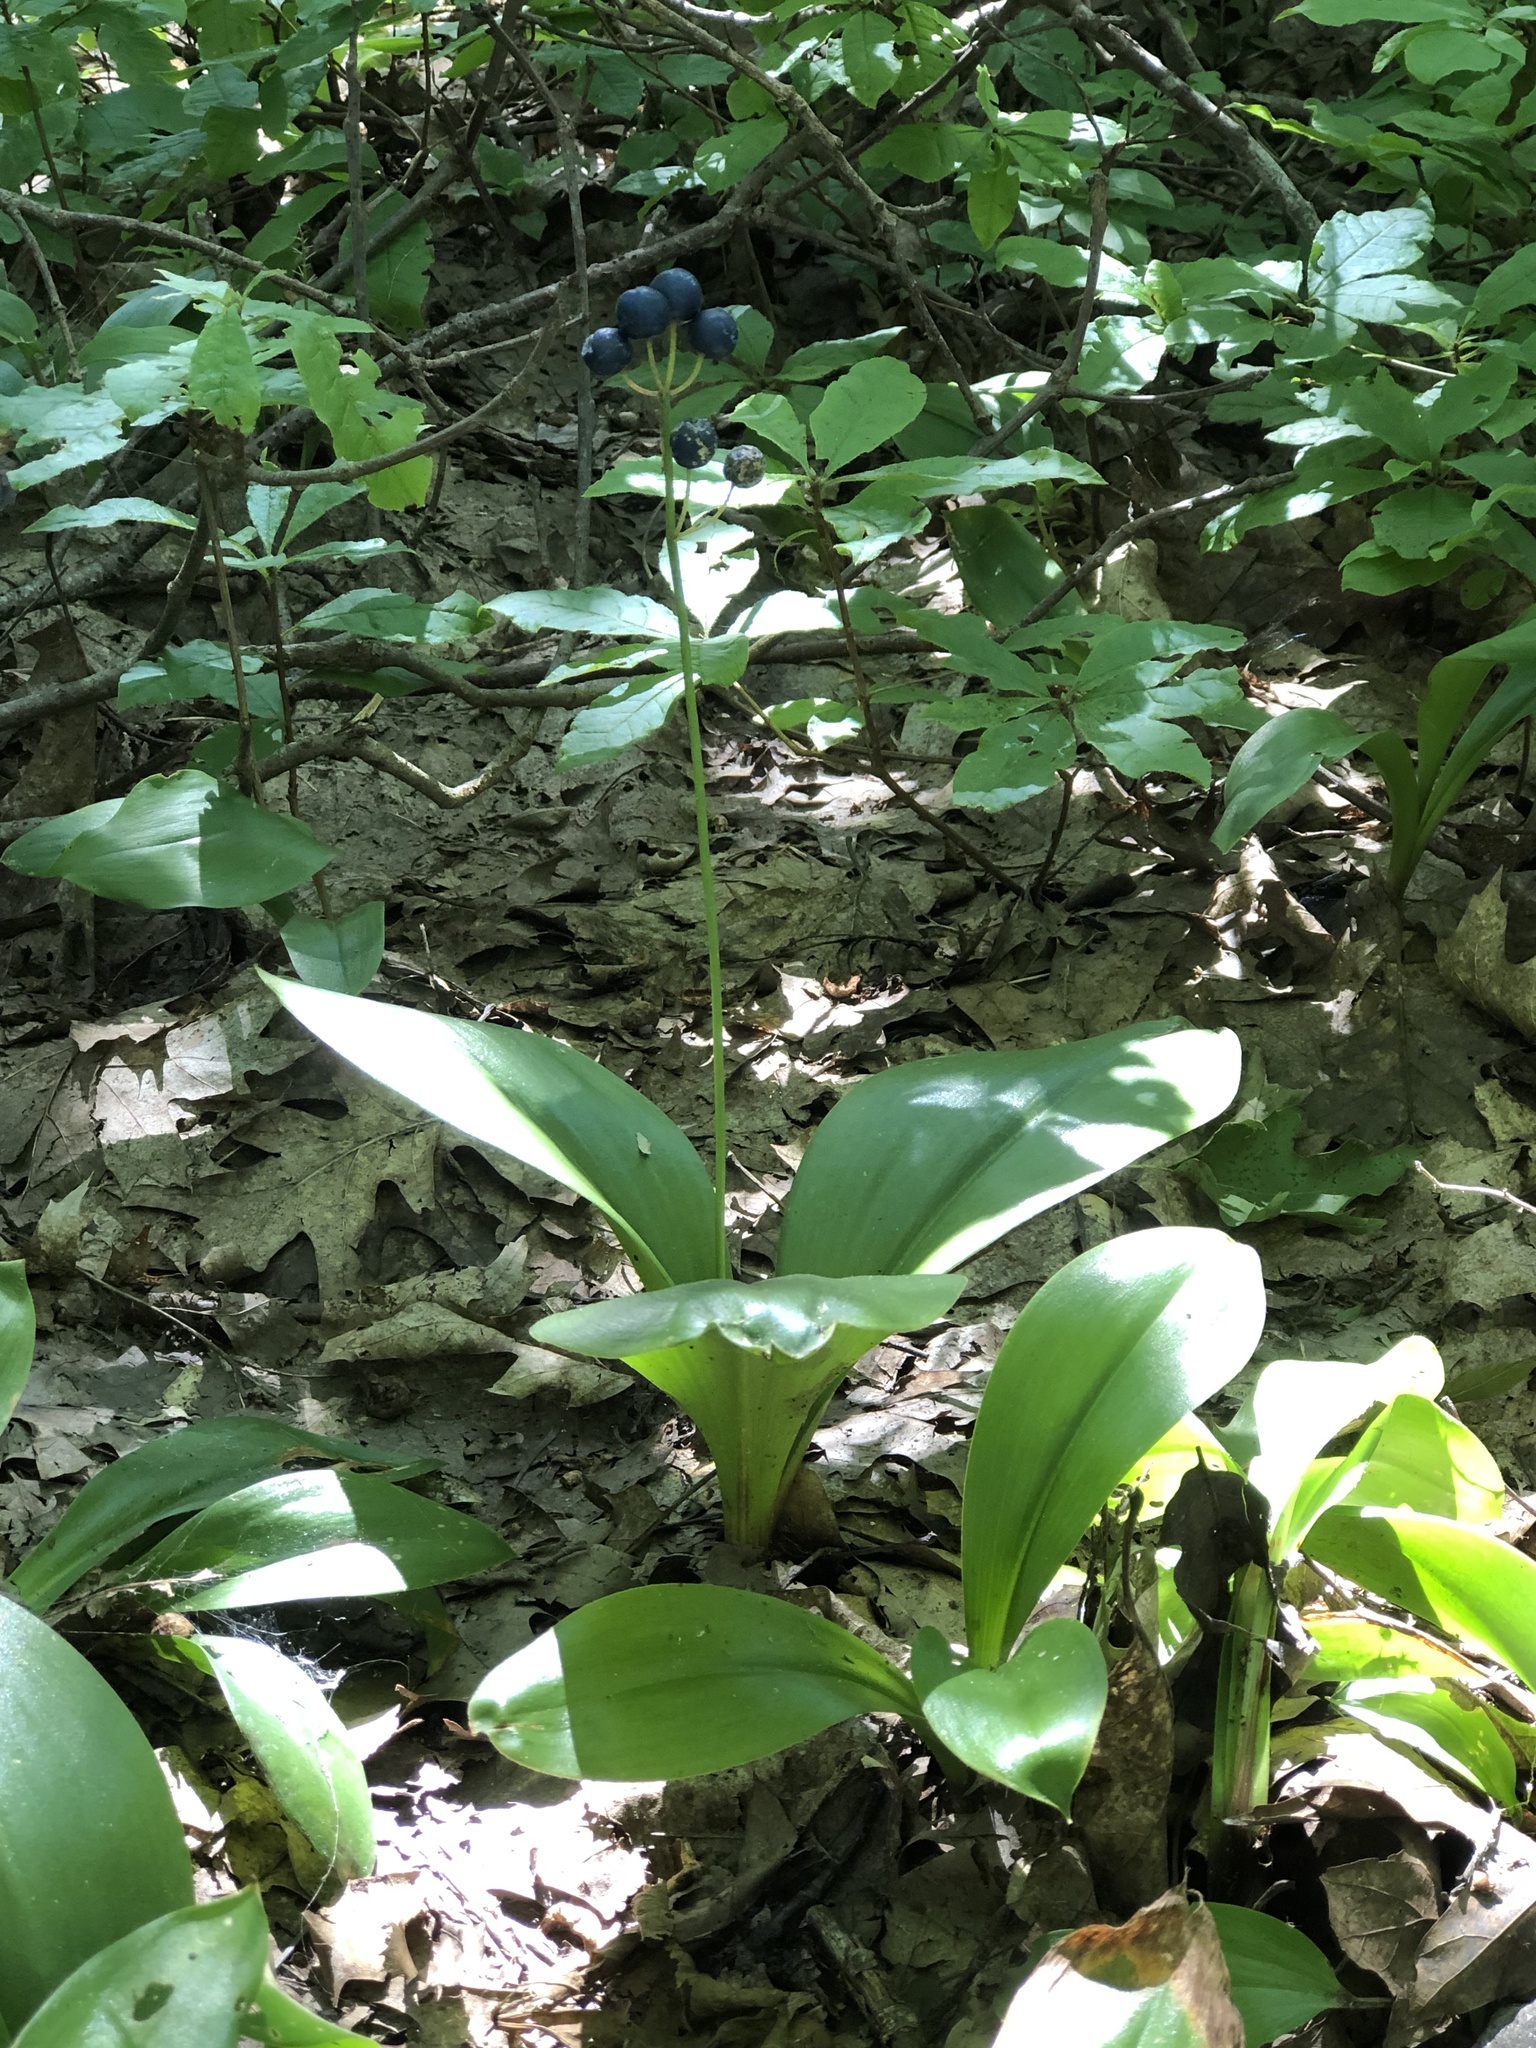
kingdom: Plantae
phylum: Tracheophyta
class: Liliopsida
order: Liliales
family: Liliaceae
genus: Clintonia
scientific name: Clintonia borealis
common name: Yellow clintonia
